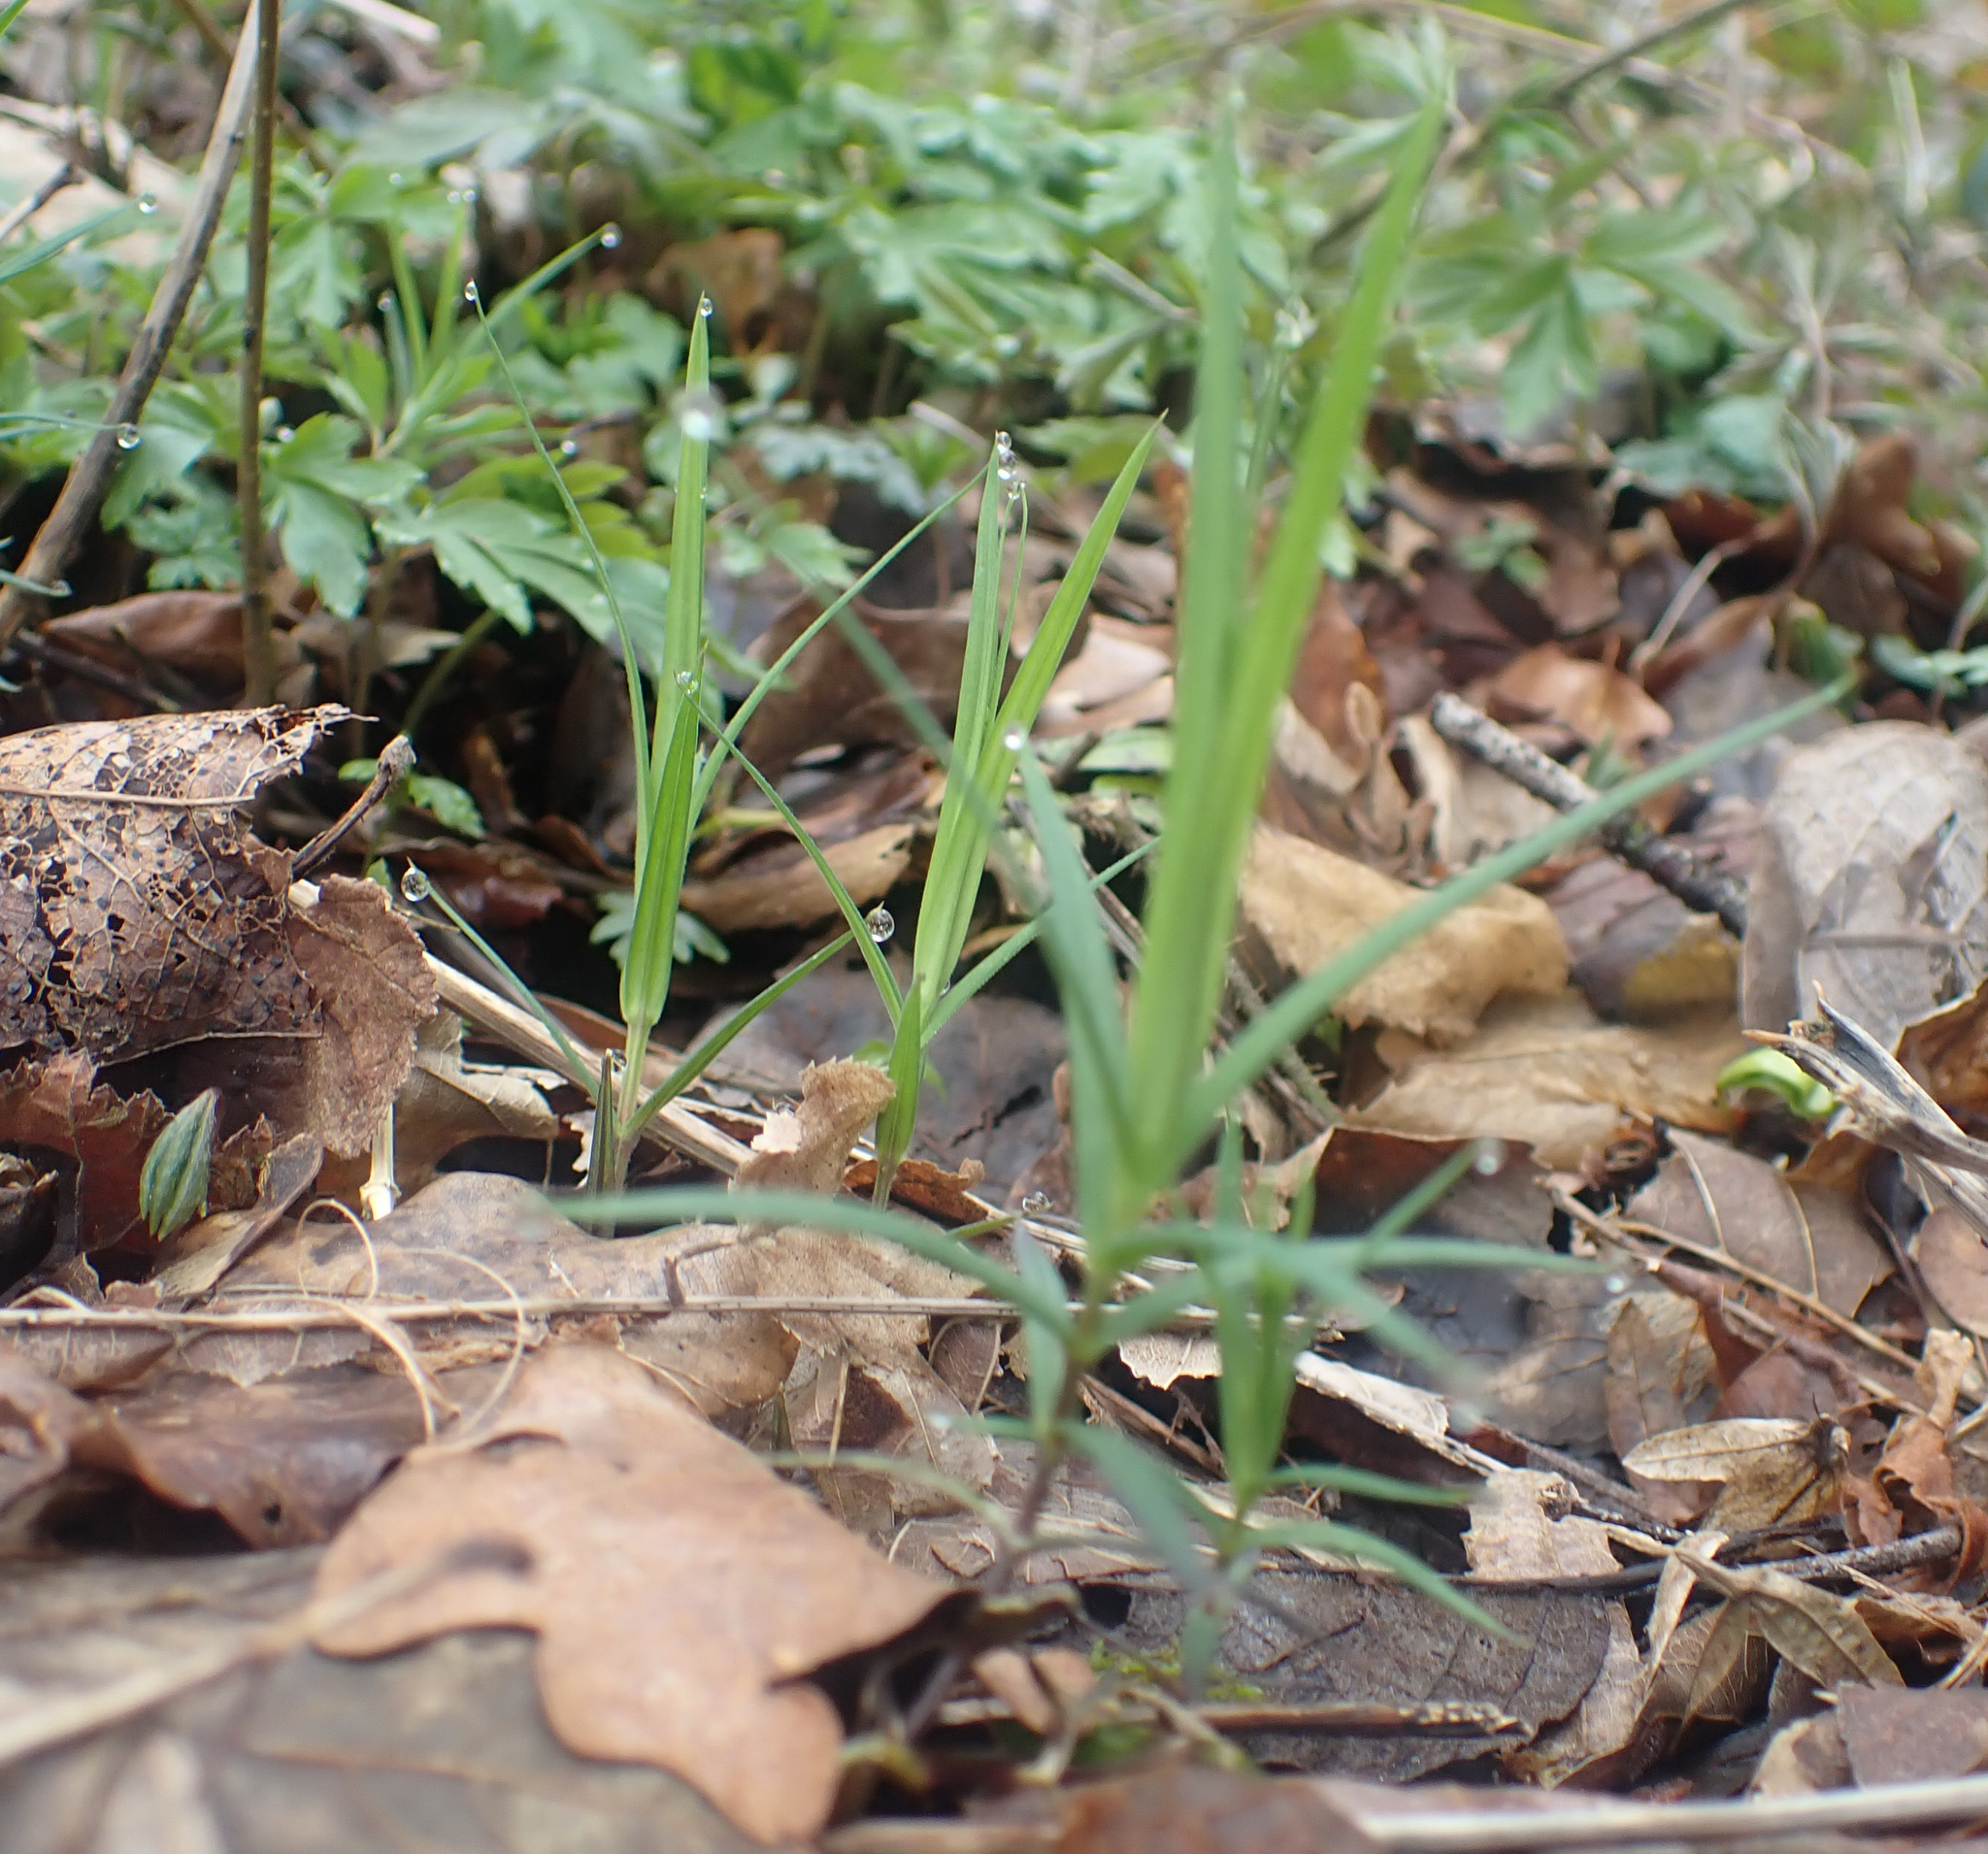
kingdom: Plantae
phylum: Tracheophyta
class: Magnoliopsida
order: Caryophyllales
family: Caryophyllaceae
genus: Rabelera
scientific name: Rabelera holostea
